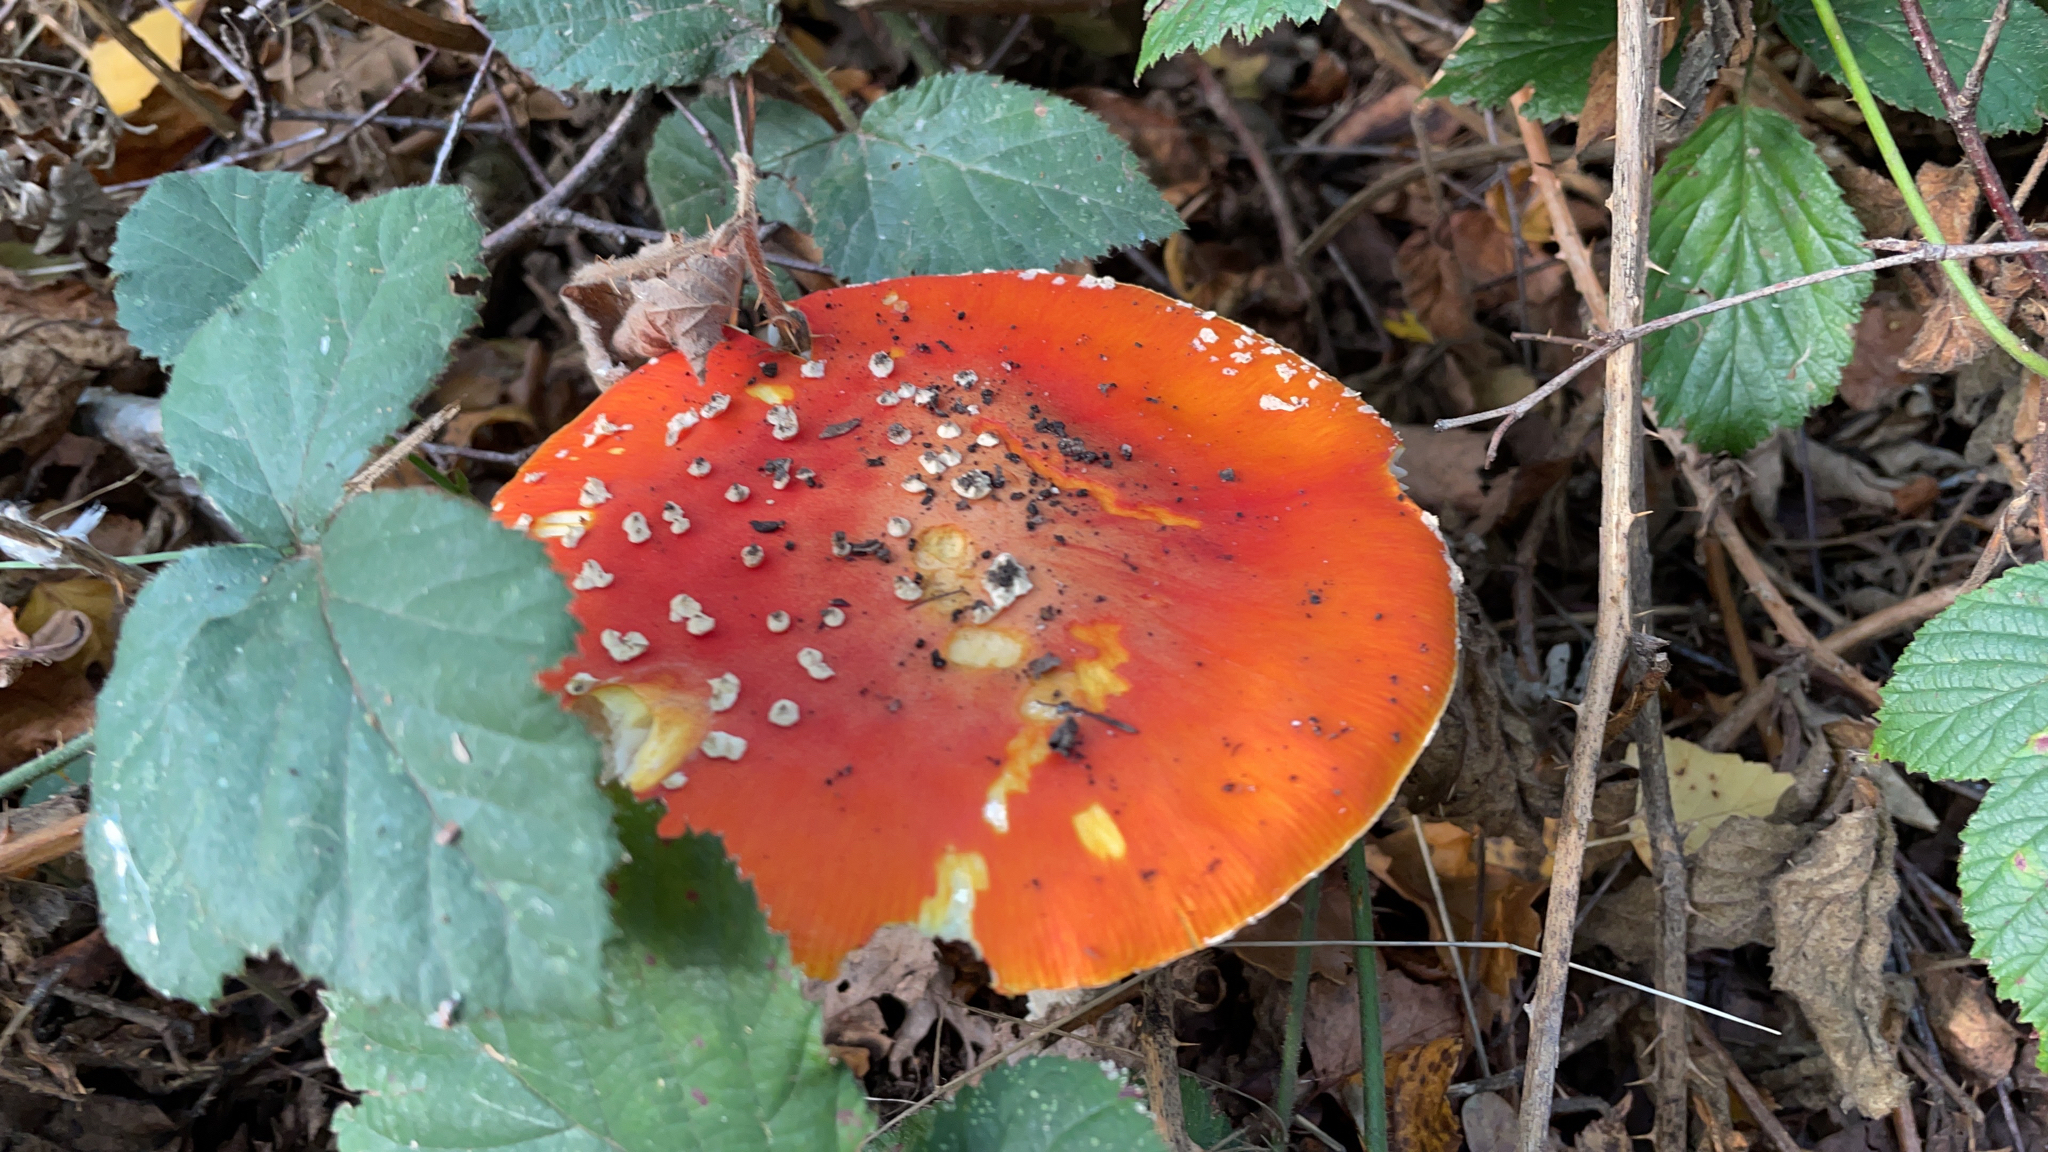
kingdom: Fungi
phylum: Basidiomycota
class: Agaricomycetes
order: Agaricales
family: Amanitaceae
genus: Amanita
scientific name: Amanita muscaria
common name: Fly agaric
